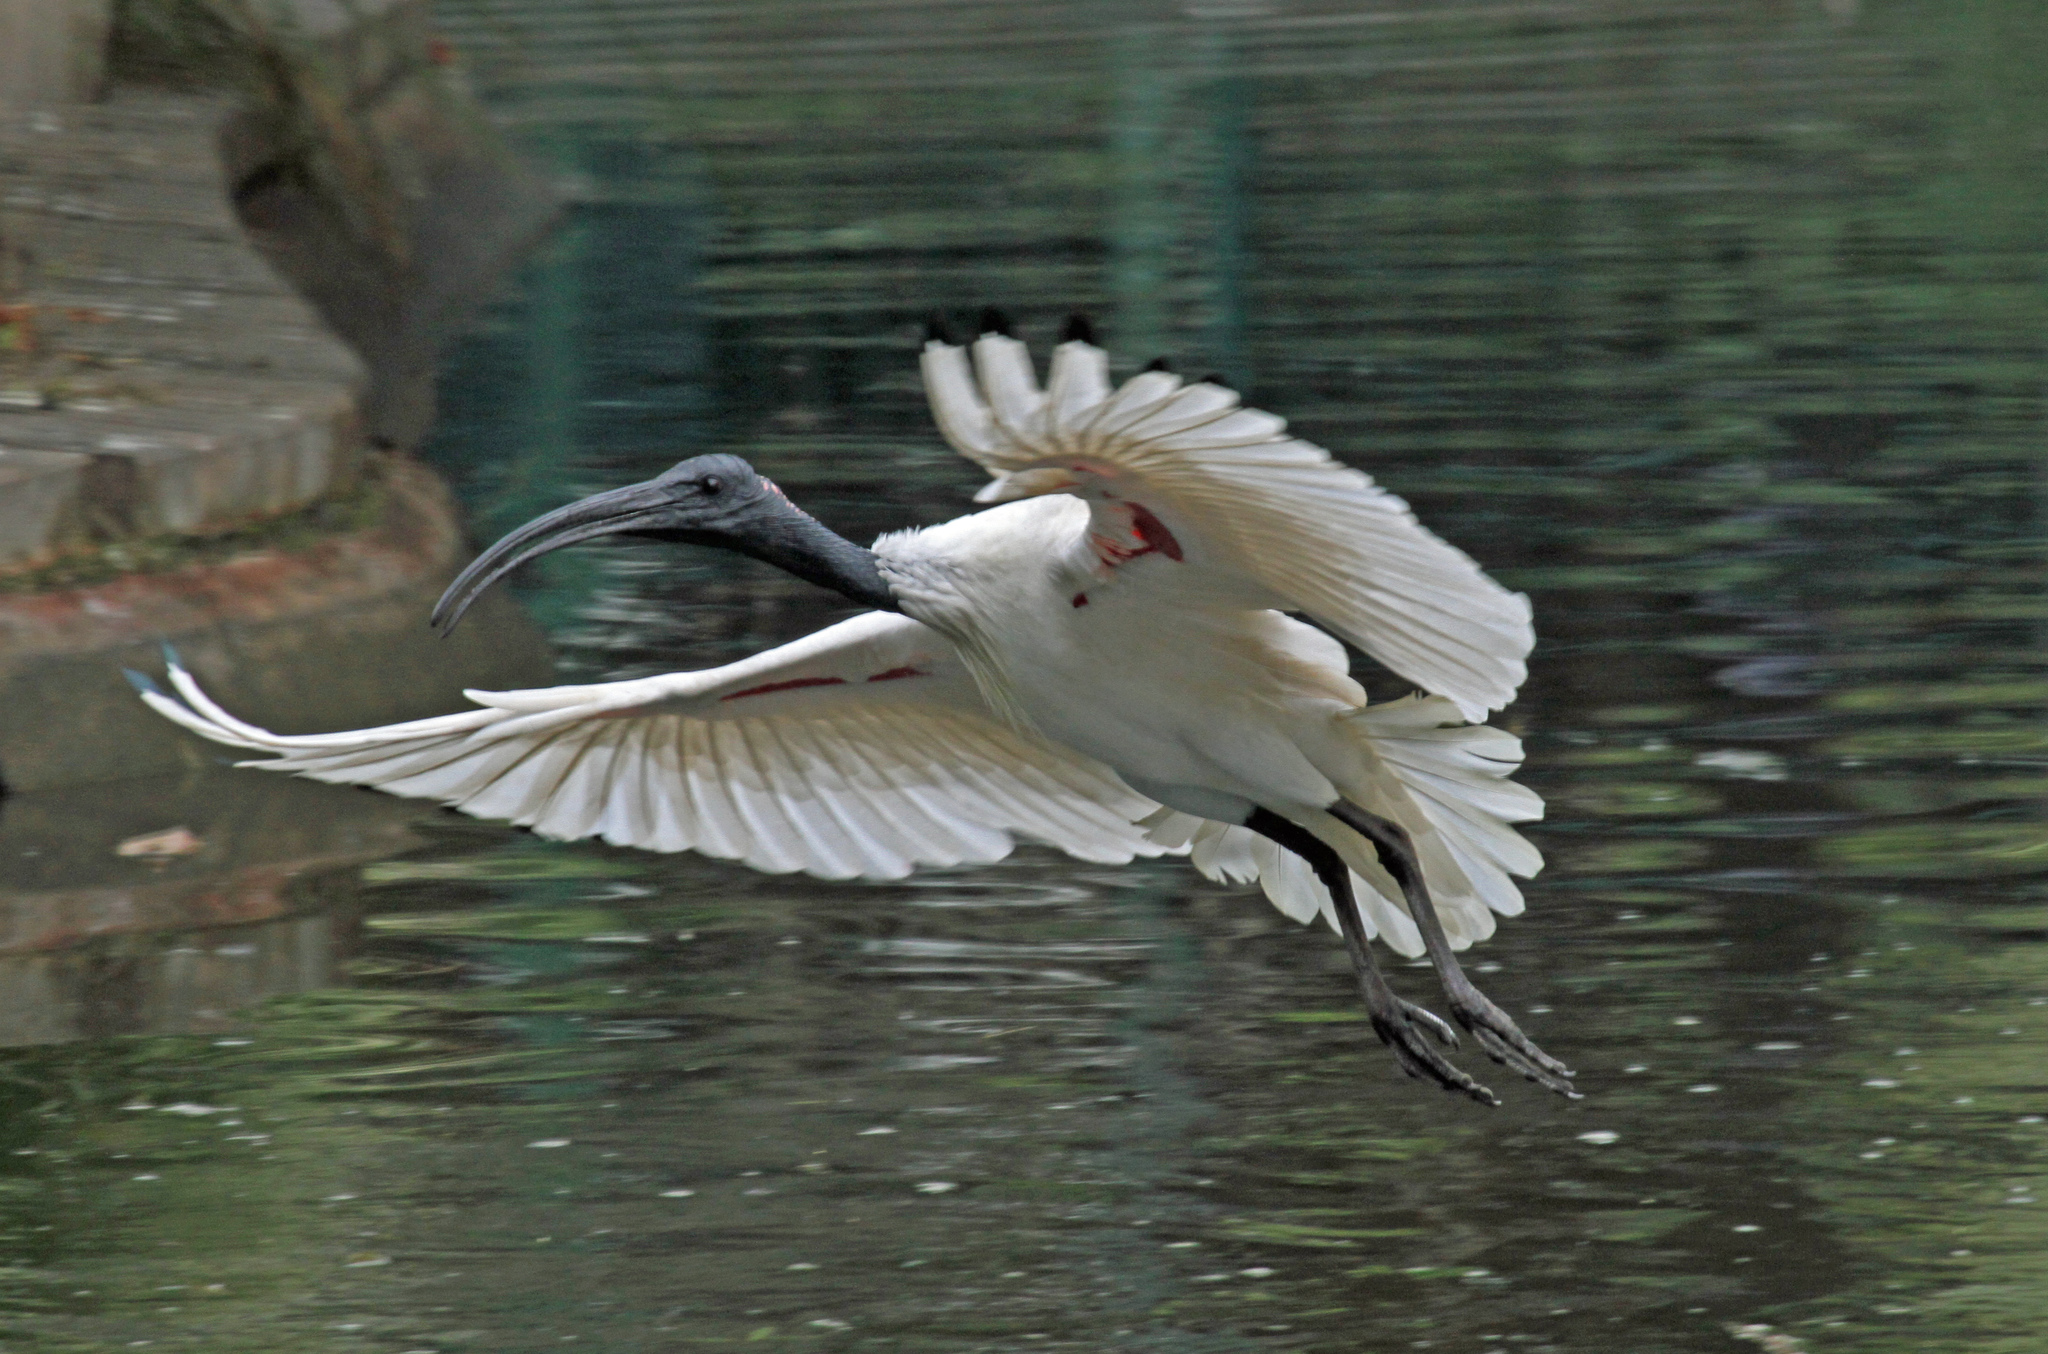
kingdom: Animalia
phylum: Chordata
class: Aves
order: Pelecaniformes
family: Threskiornithidae
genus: Threskiornis
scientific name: Threskiornis molucca
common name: Australian white ibis
